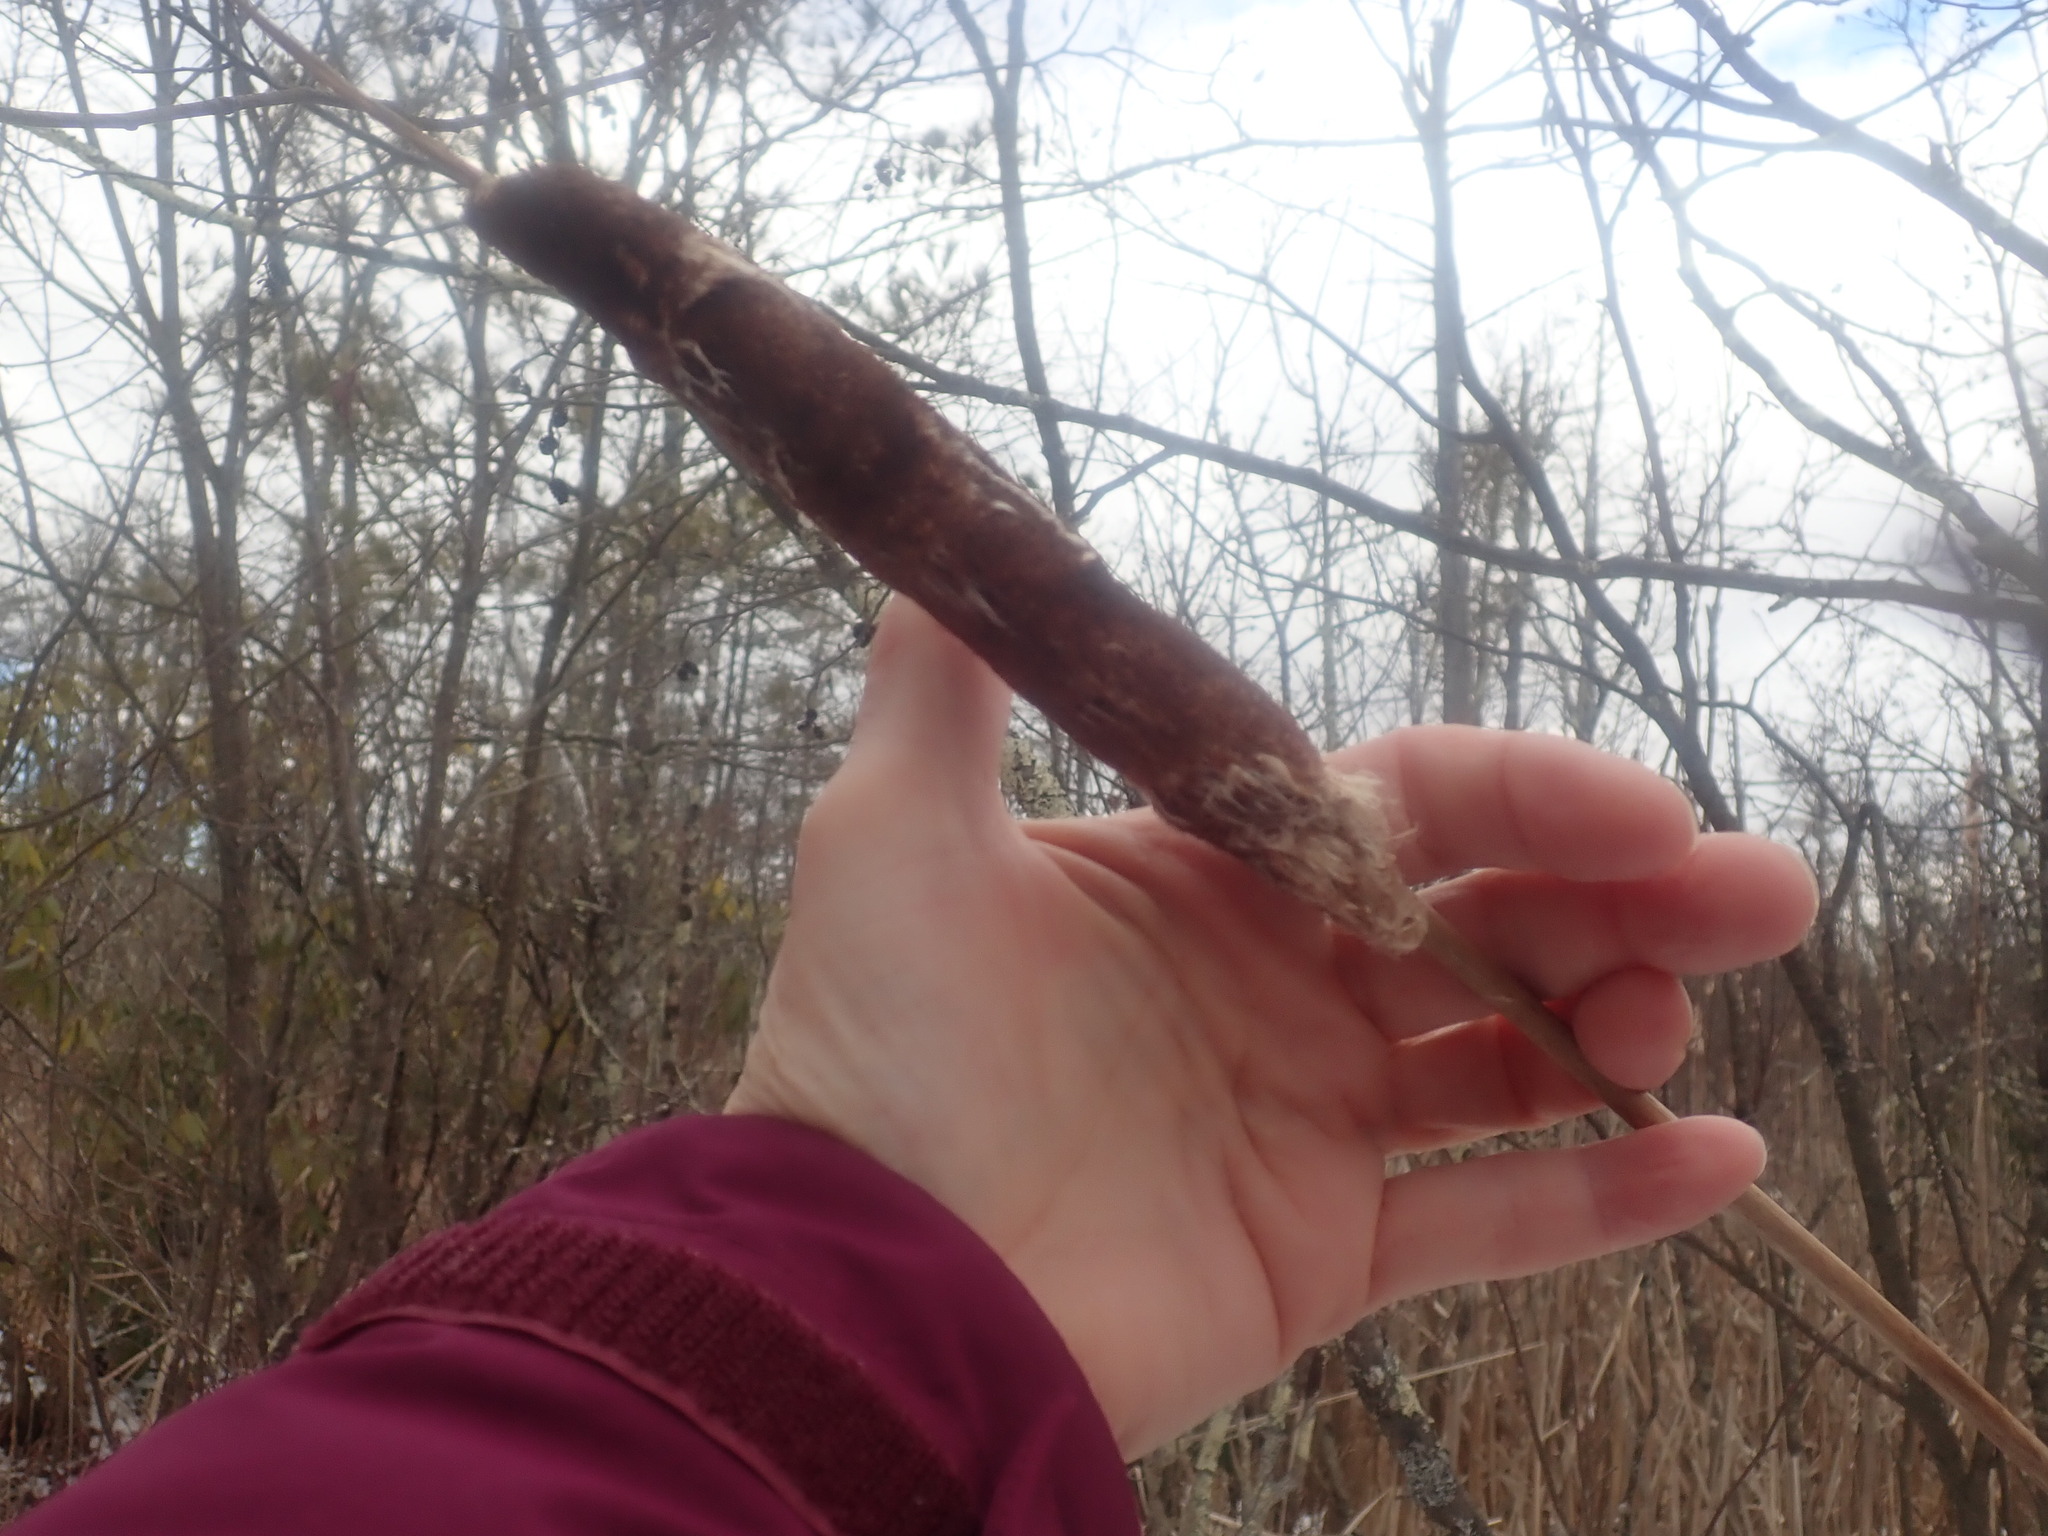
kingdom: Plantae
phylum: Tracheophyta
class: Liliopsida
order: Poales
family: Typhaceae
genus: Typha
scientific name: Typha
